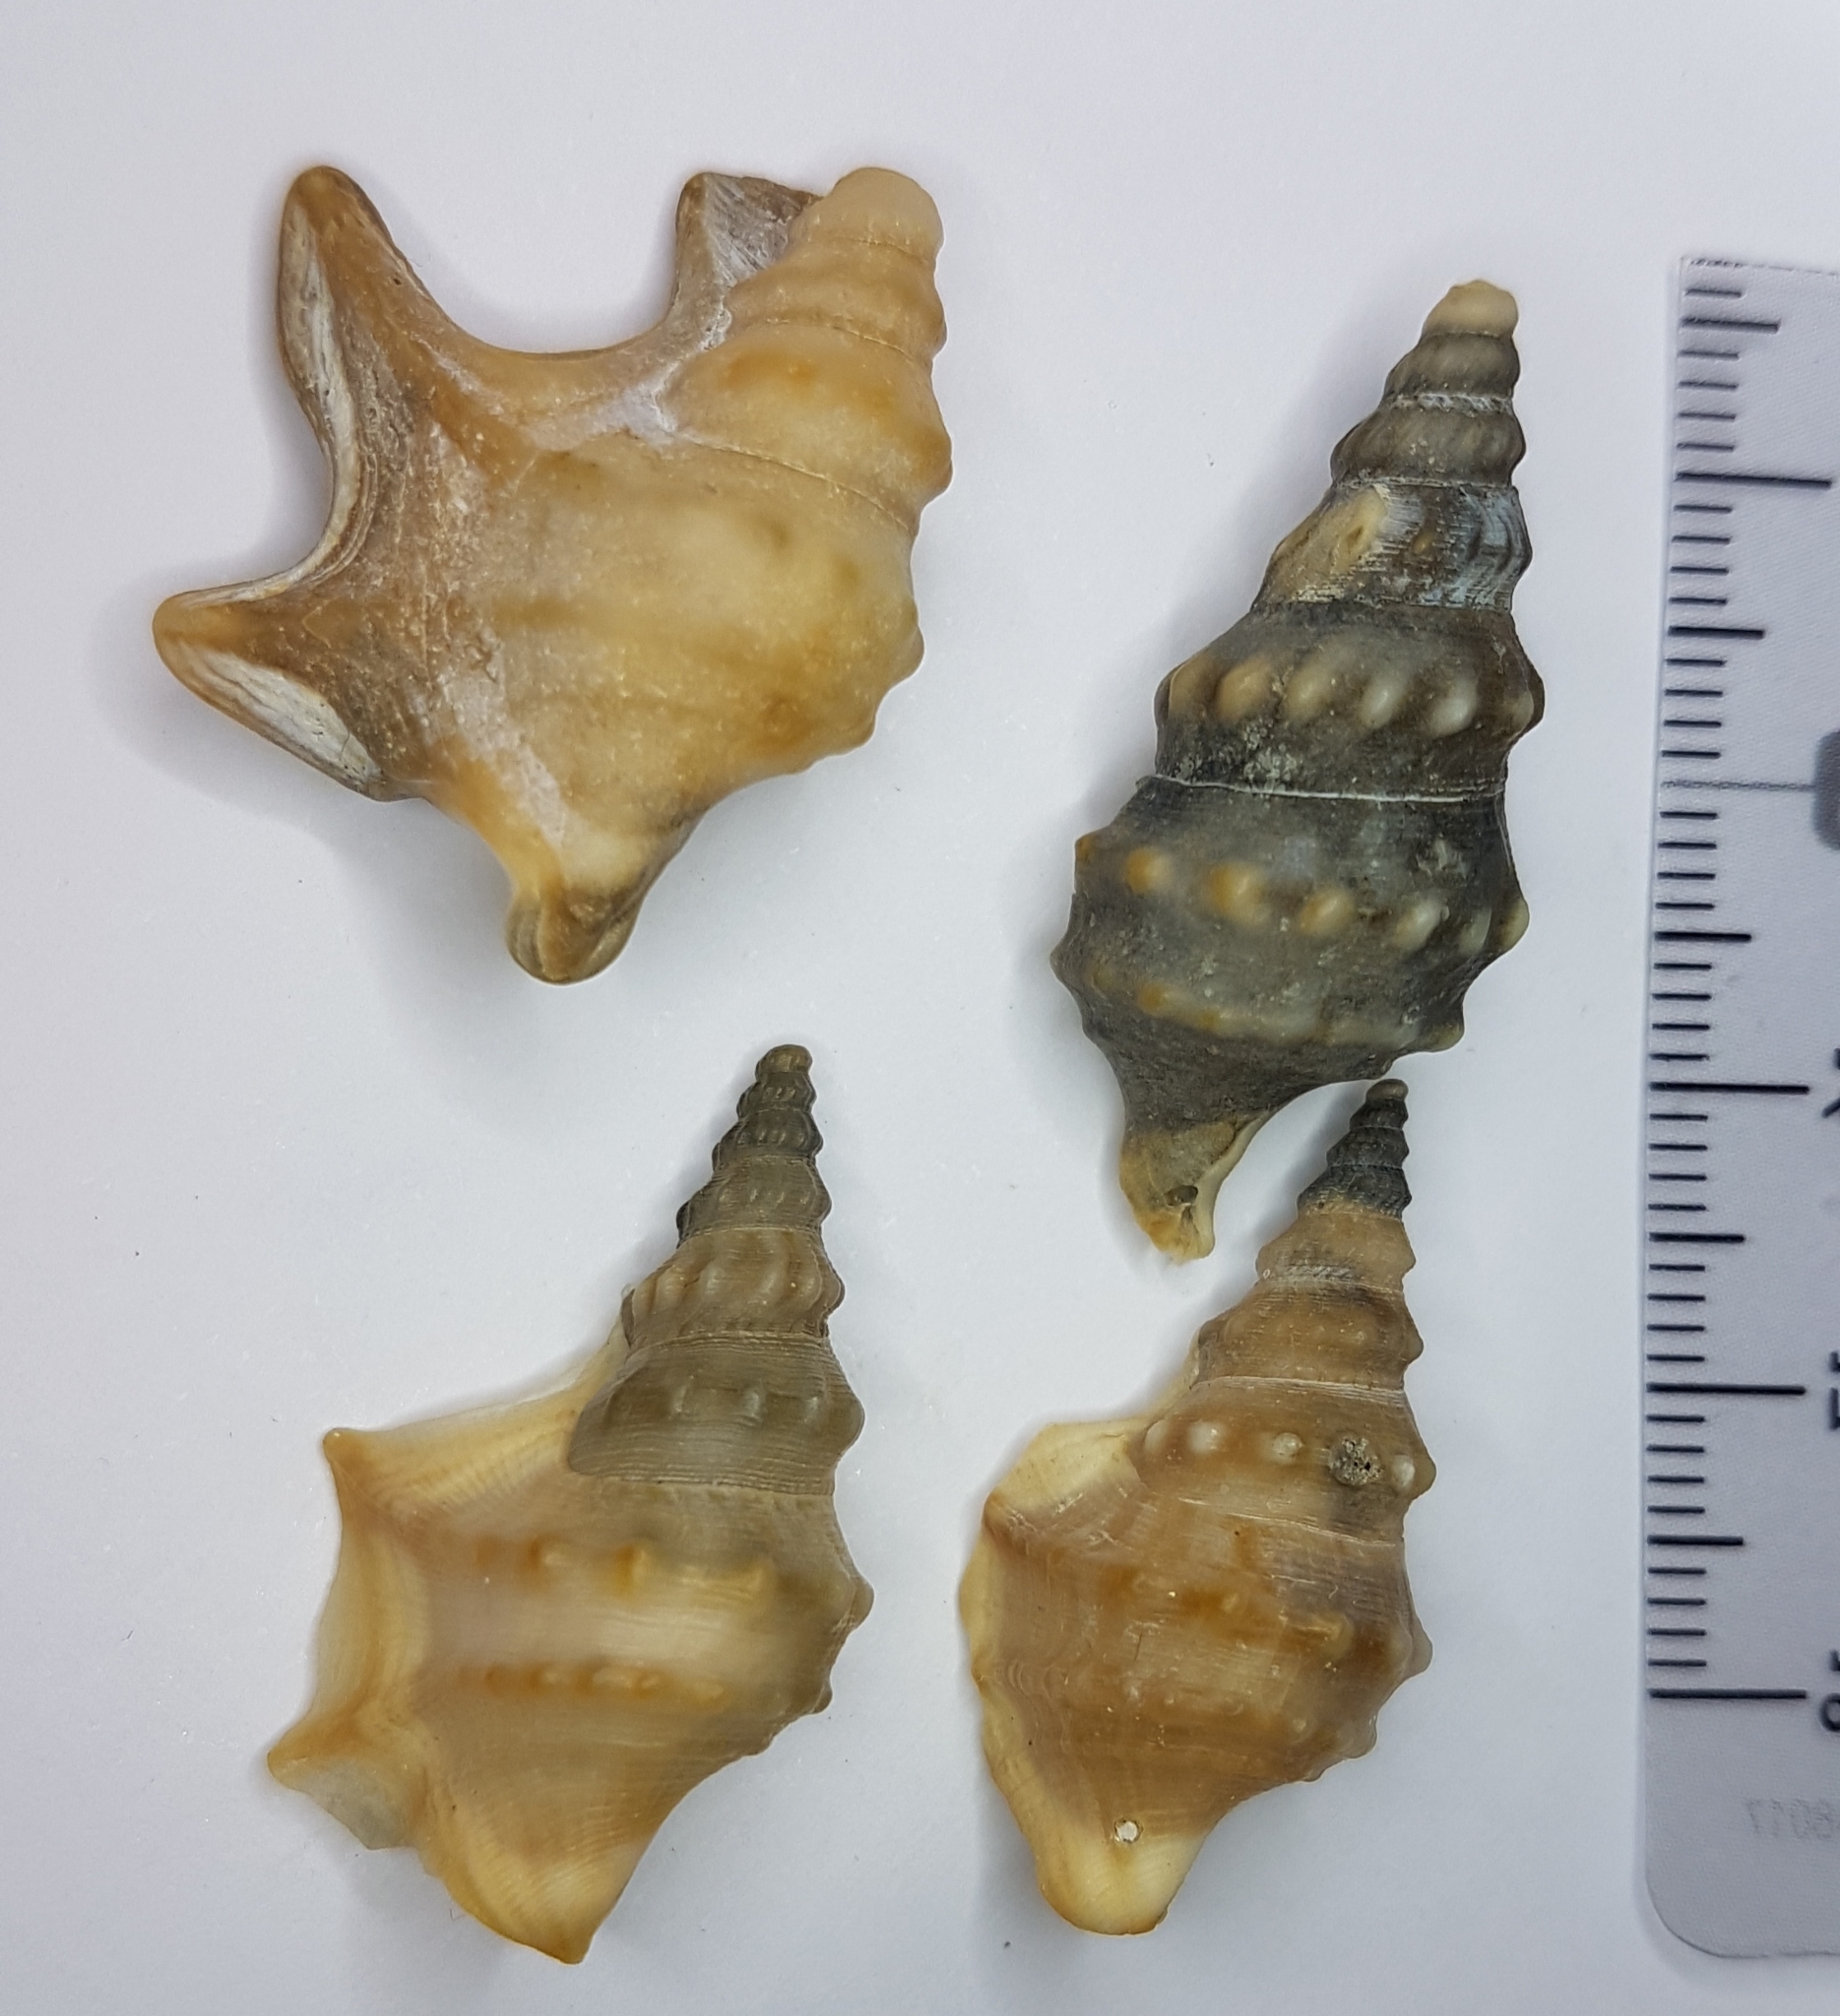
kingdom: Animalia
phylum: Mollusca
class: Gastropoda
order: Littorinimorpha
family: Aporrhaidae
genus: Aporrhais
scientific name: Aporrhais pespelecani
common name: Common pelican’s foot
